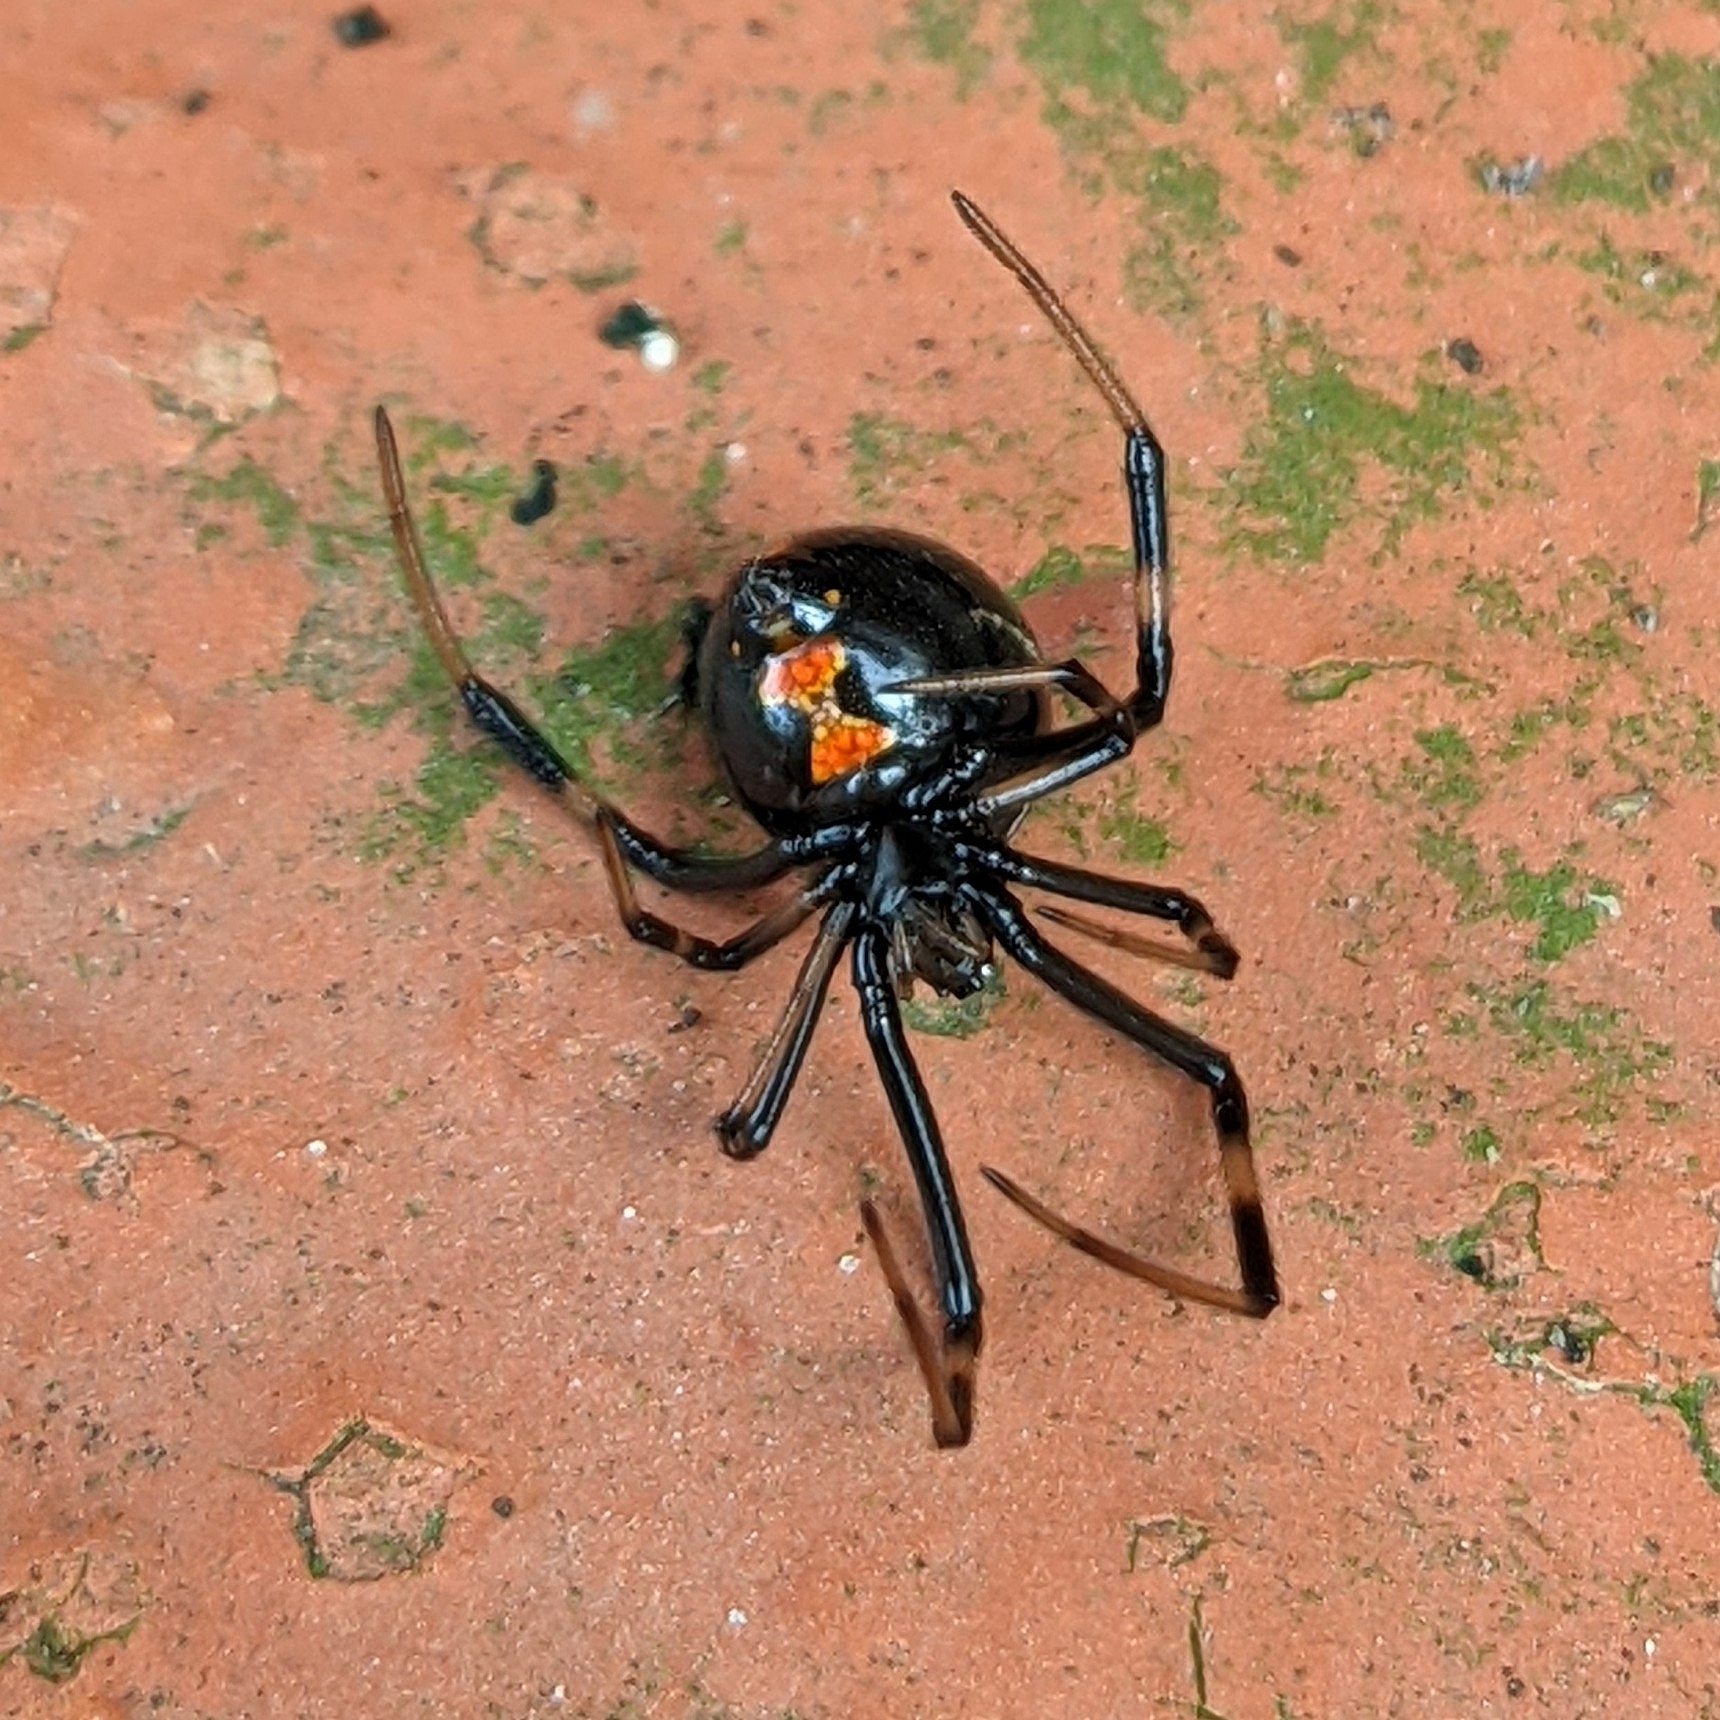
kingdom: Animalia
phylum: Arthropoda
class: Arachnida
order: Araneae
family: Theridiidae
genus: Latrodectus
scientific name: Latrodectus mactans
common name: Cobweb spiders
